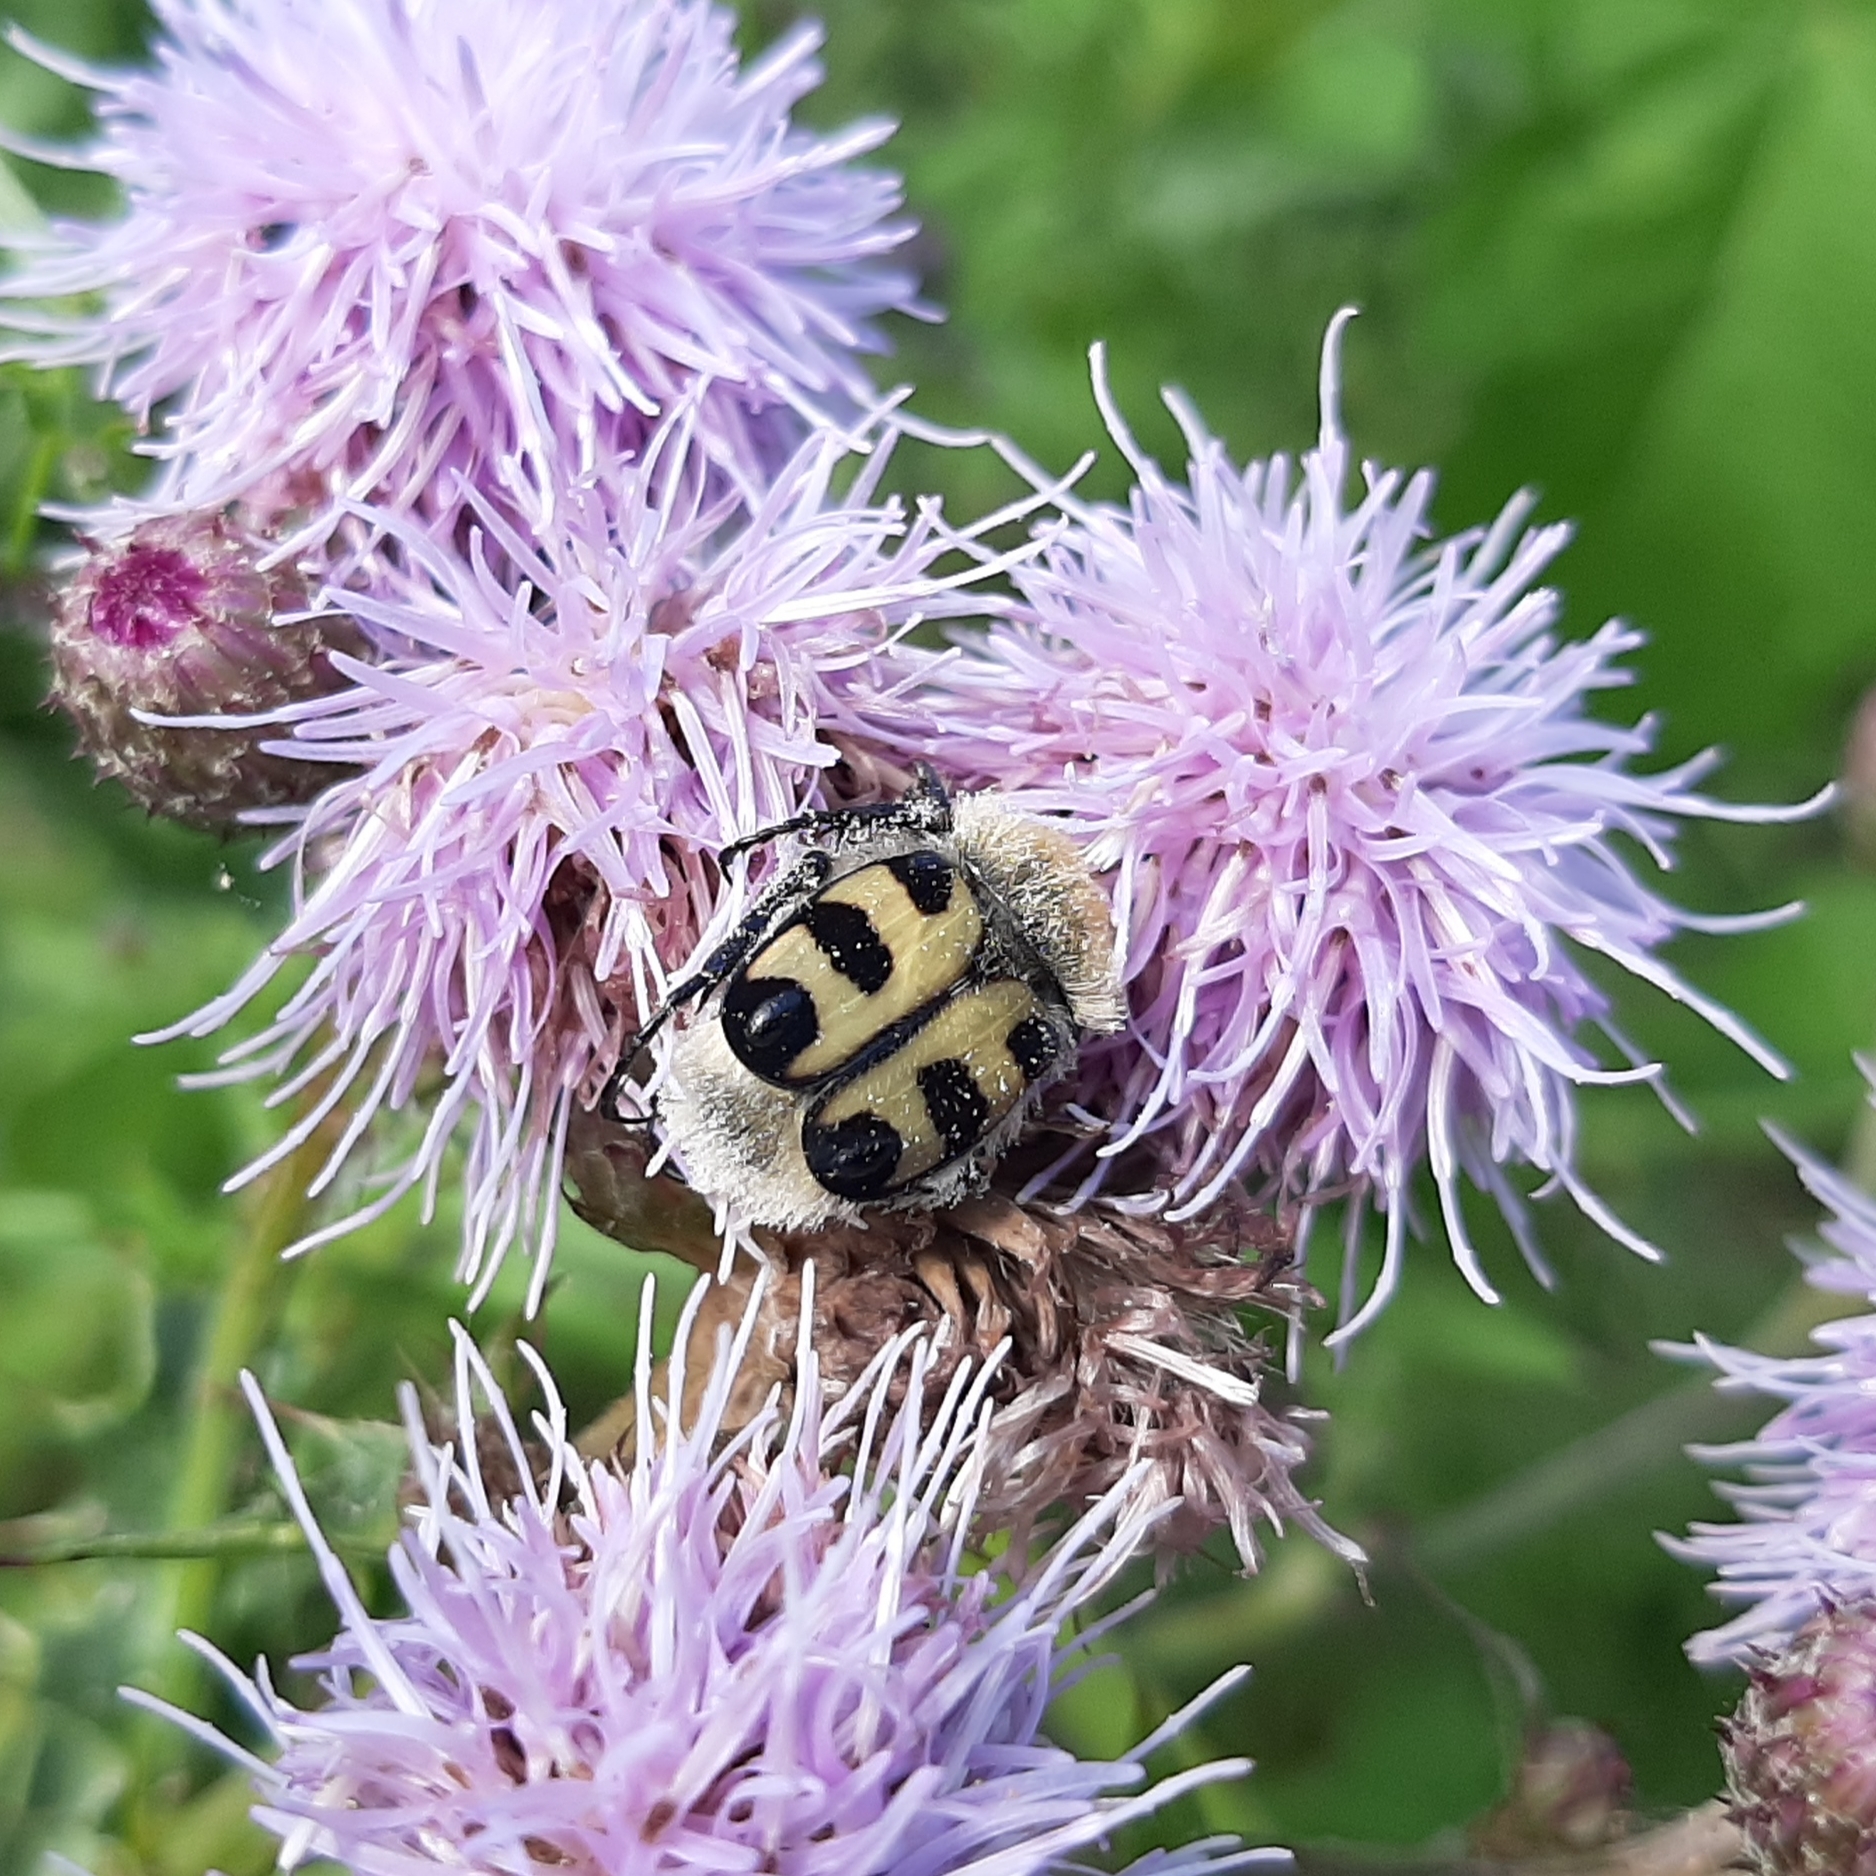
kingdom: Animalia
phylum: Arthropoda
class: Insecta
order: Coleoptera
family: Scarabaeidae
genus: Trichius
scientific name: Trichius gallicus
